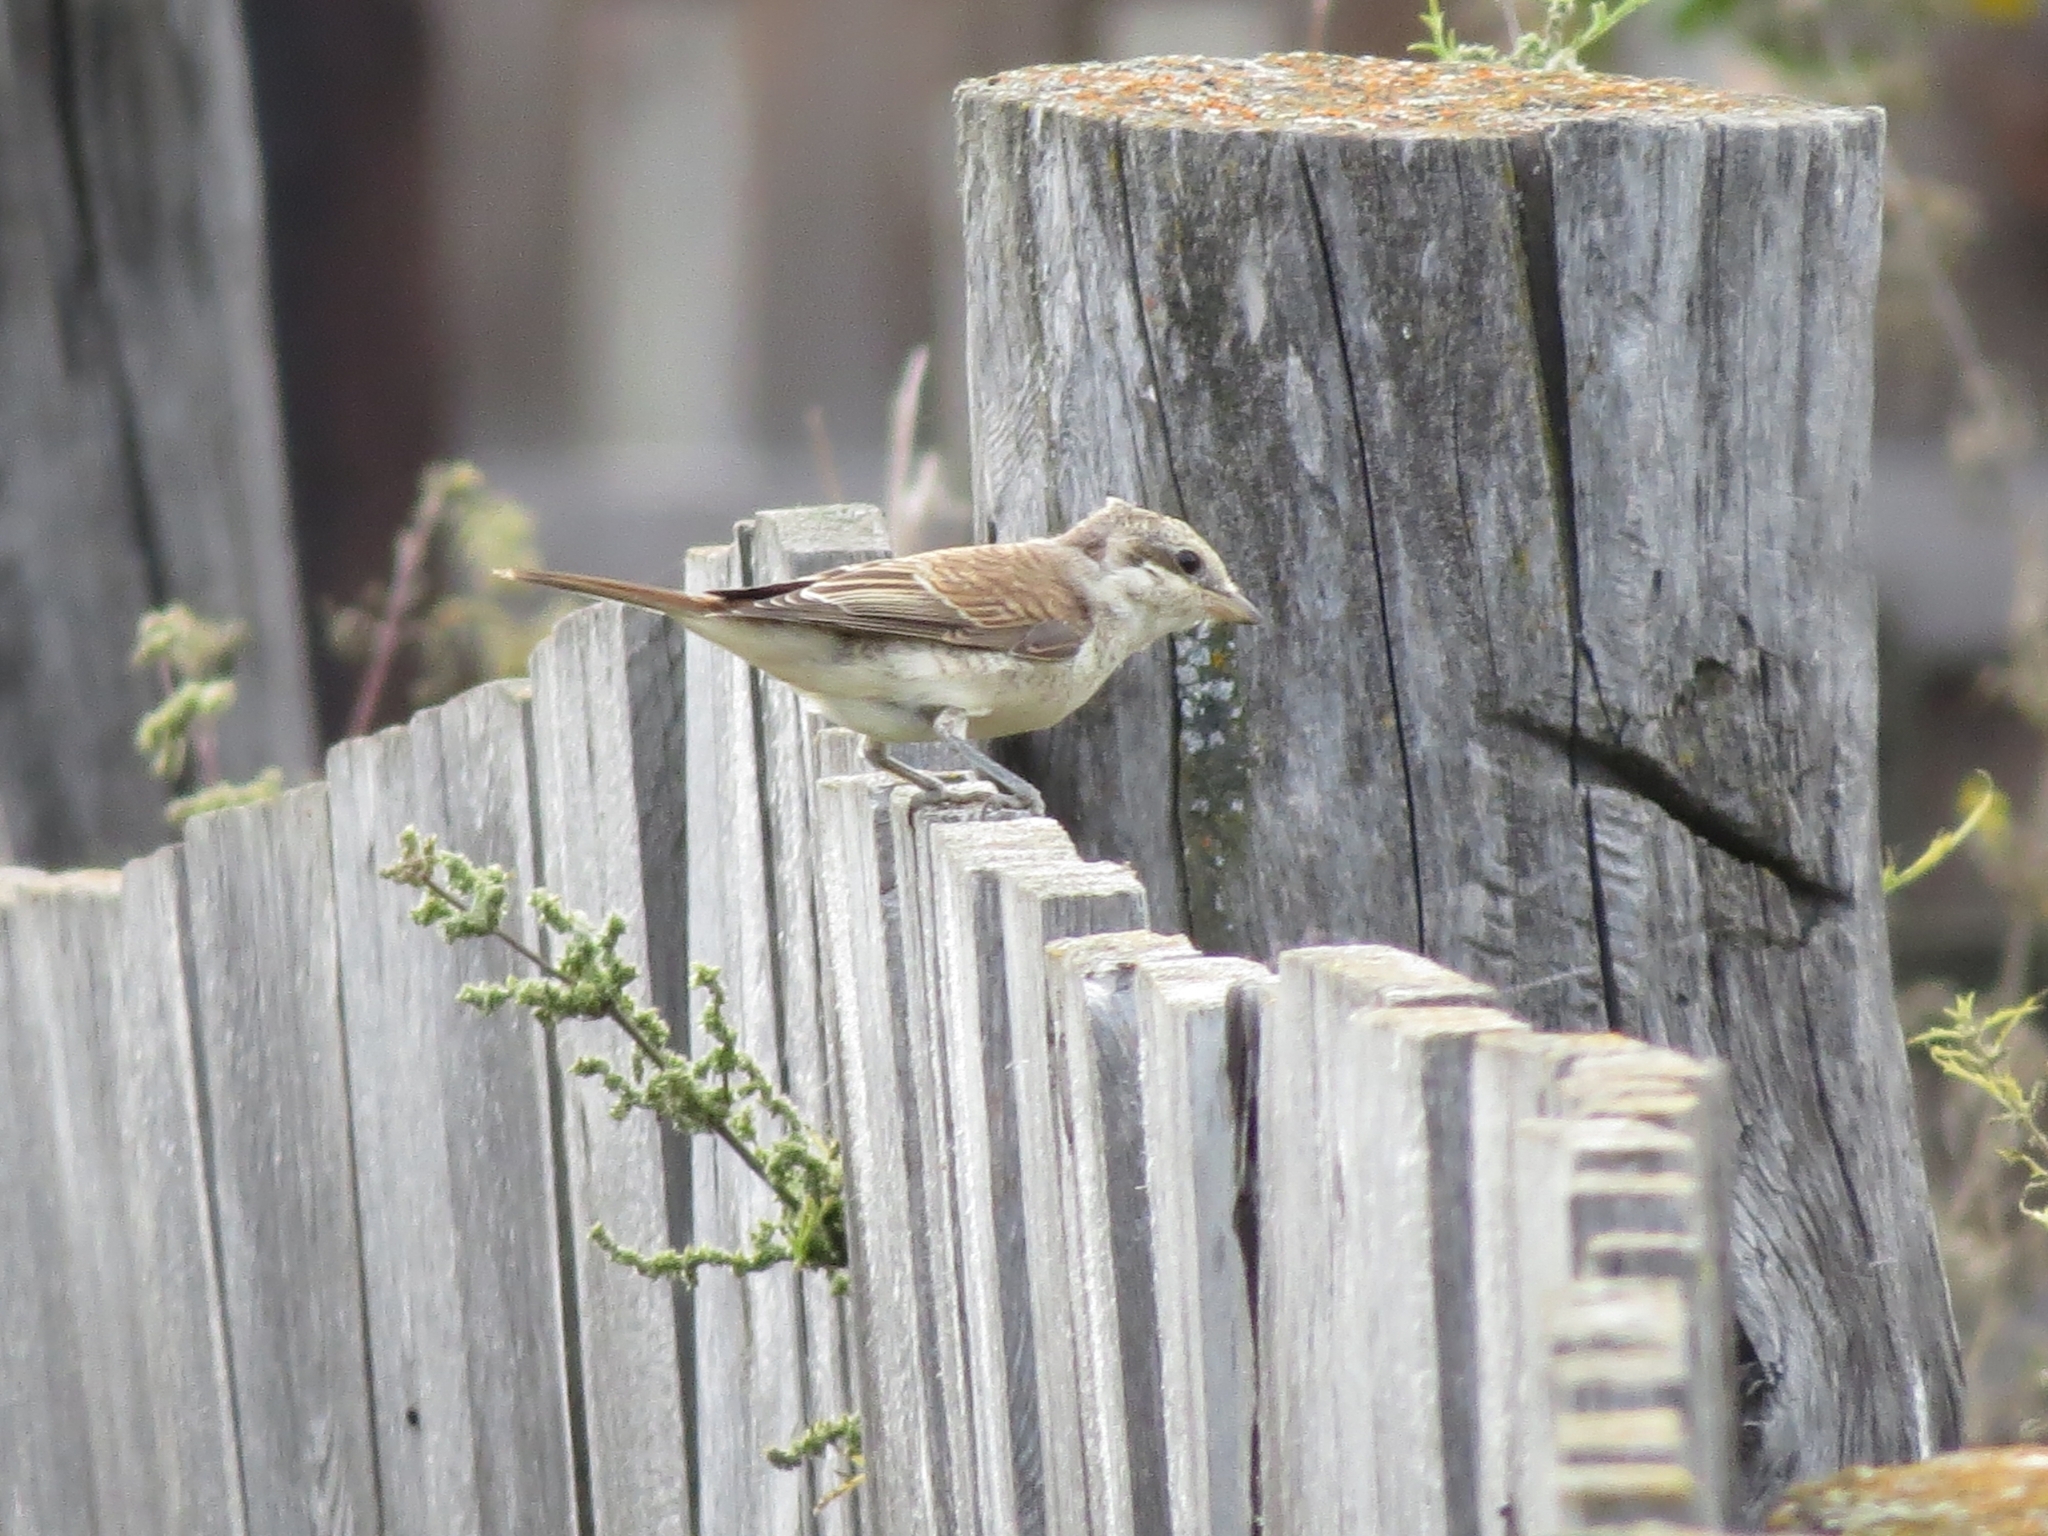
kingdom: Animalia
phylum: Chordata
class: Aves
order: Passeriformes
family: Laniidae
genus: Lanius
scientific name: Lanius collurio
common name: Red-backed shrike
